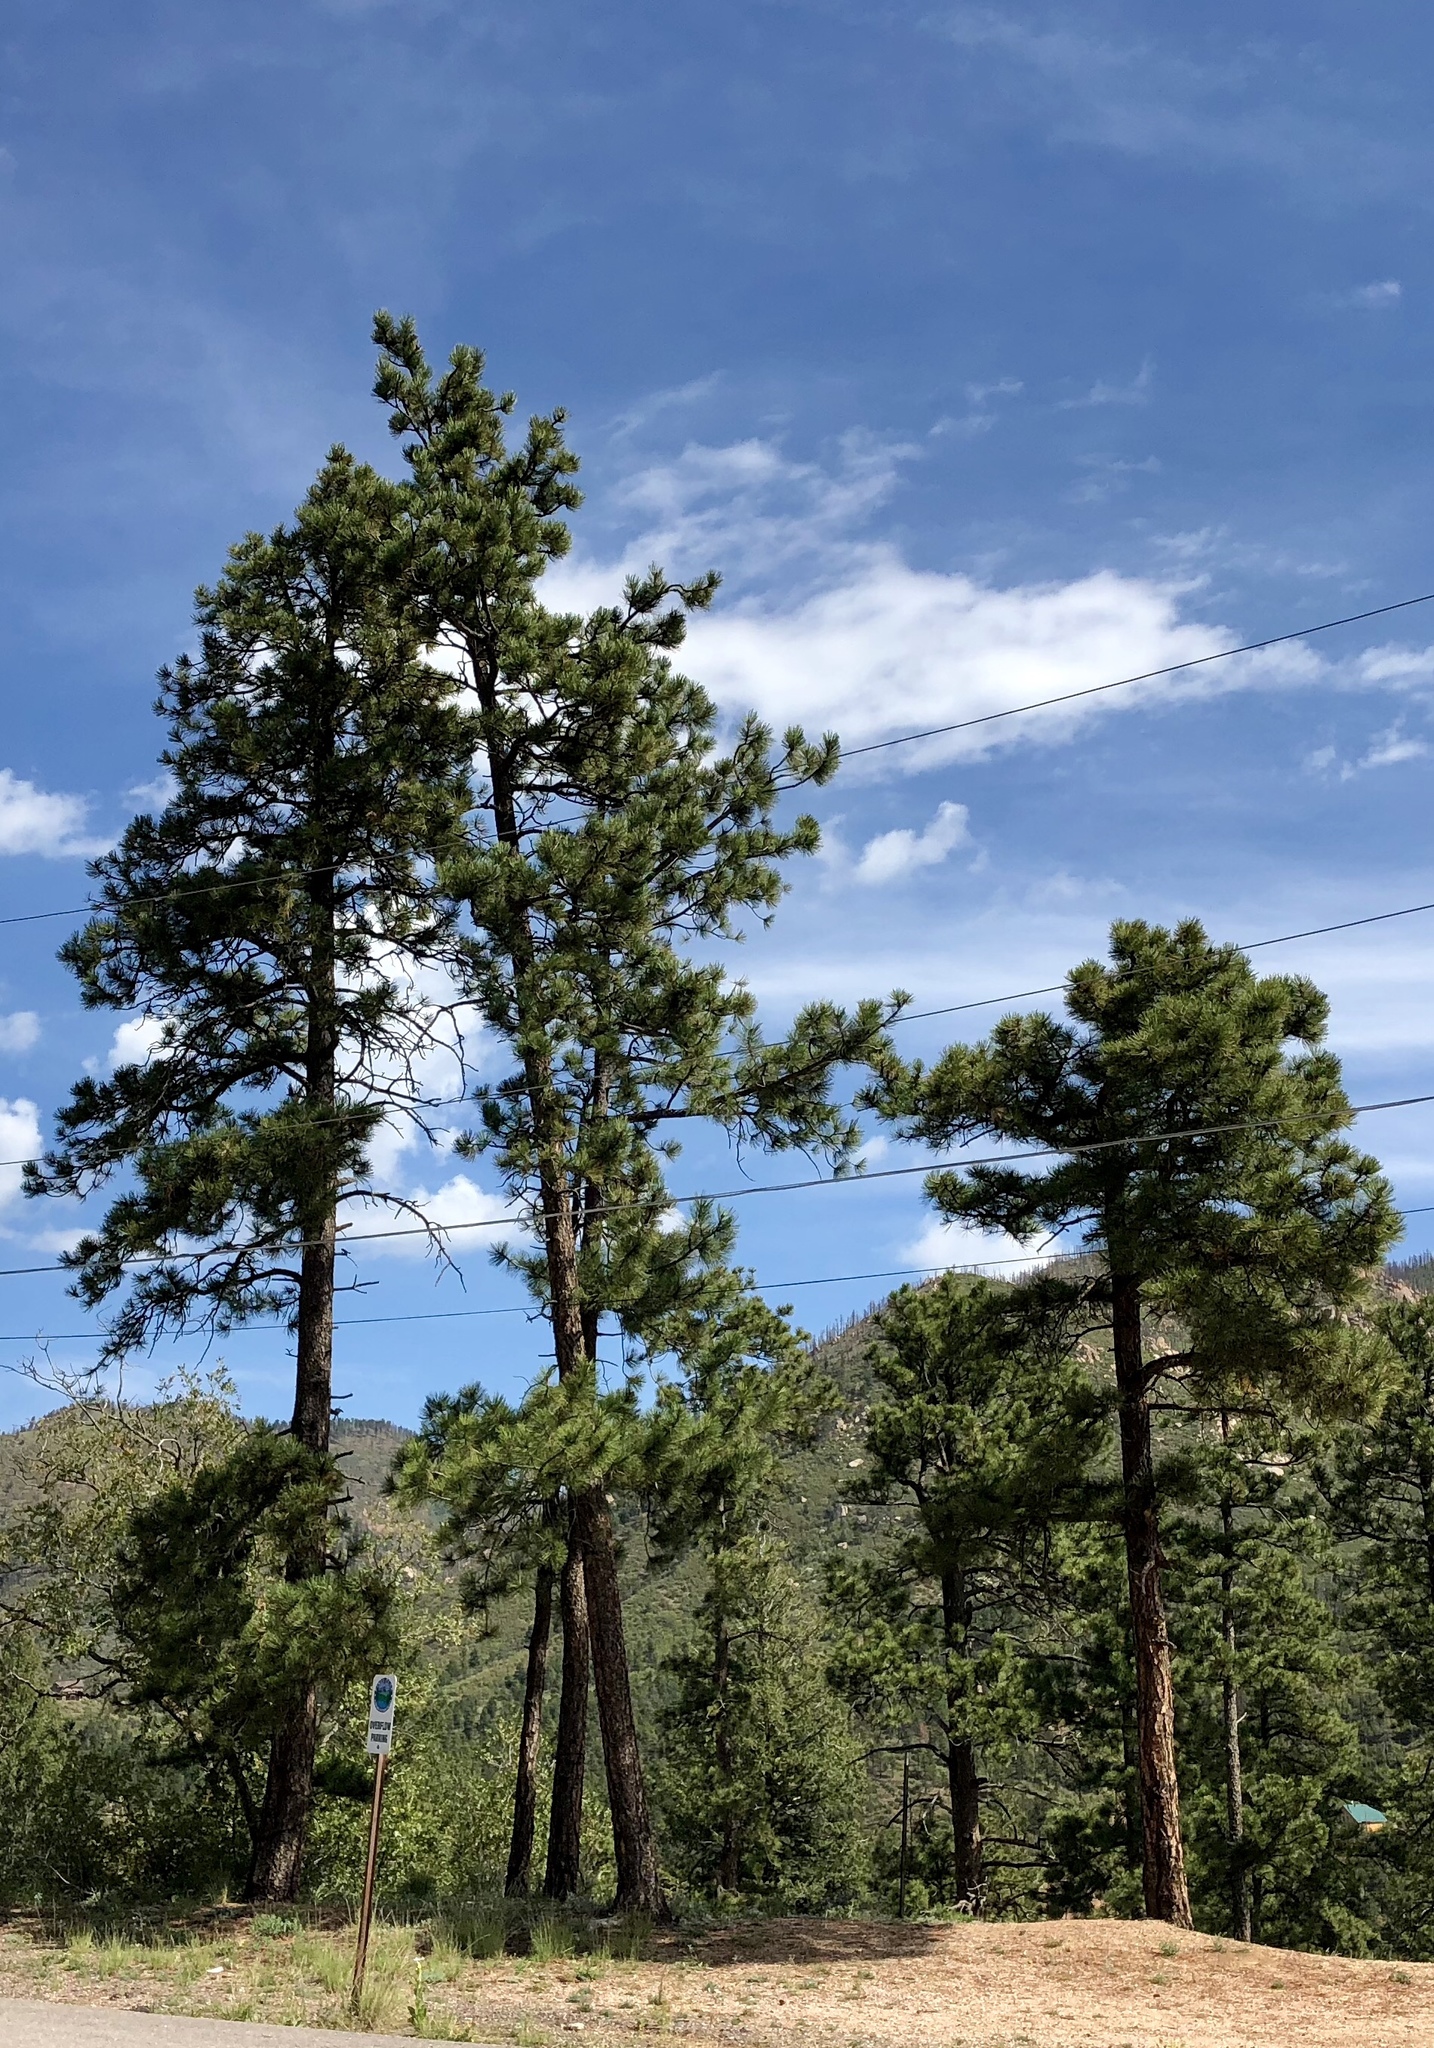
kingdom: Plantae
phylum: Tracheophyta
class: Pinopsida
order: Pinales
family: Pinaceae
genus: Pinus
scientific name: Pinus ponderosa
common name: Western yellow-pine
